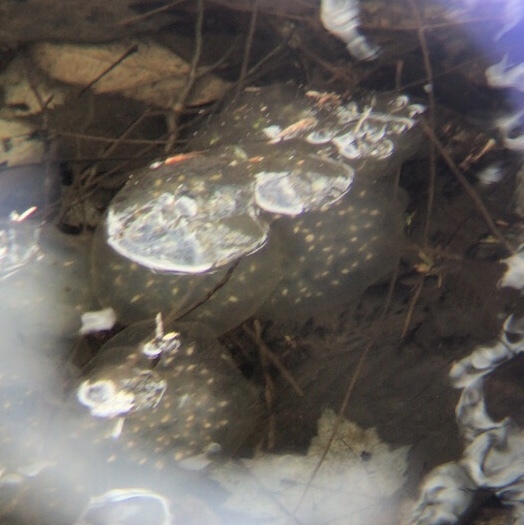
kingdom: Animalia
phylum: Chordata
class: Amphibia
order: Caudata
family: Ambystomatidae
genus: Ambystoma
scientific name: Ambystoma maculatum
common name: Spotted salamander
